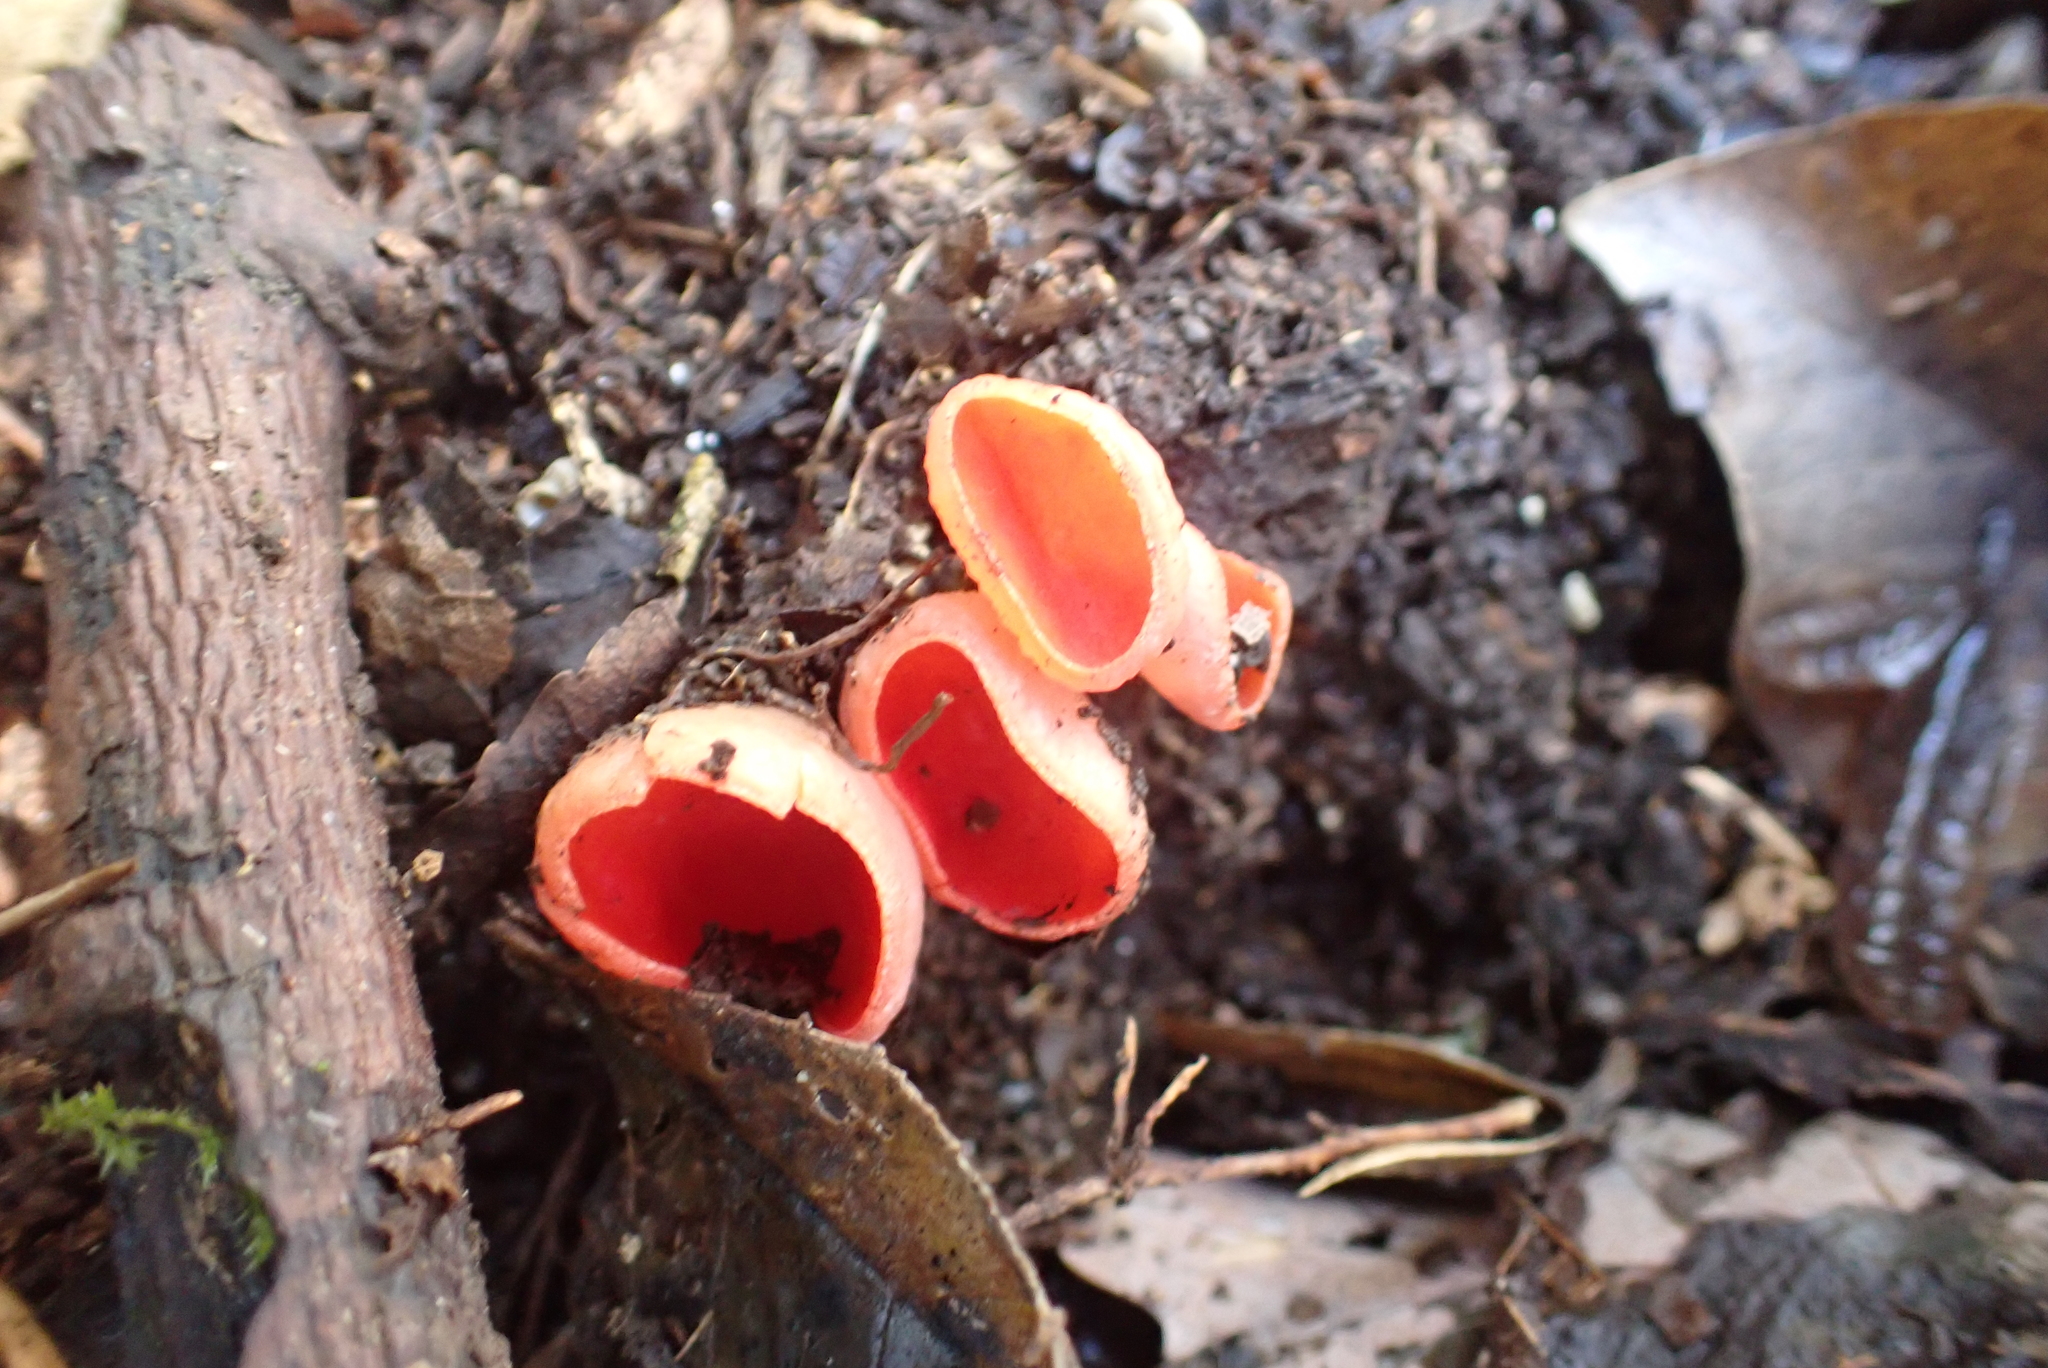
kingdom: Fungi
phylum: Ascomycota
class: Pezizomycetes
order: Pezizales
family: Sarcoscyphaceae
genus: Sarcoscypha
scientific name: Sarcoscypha
